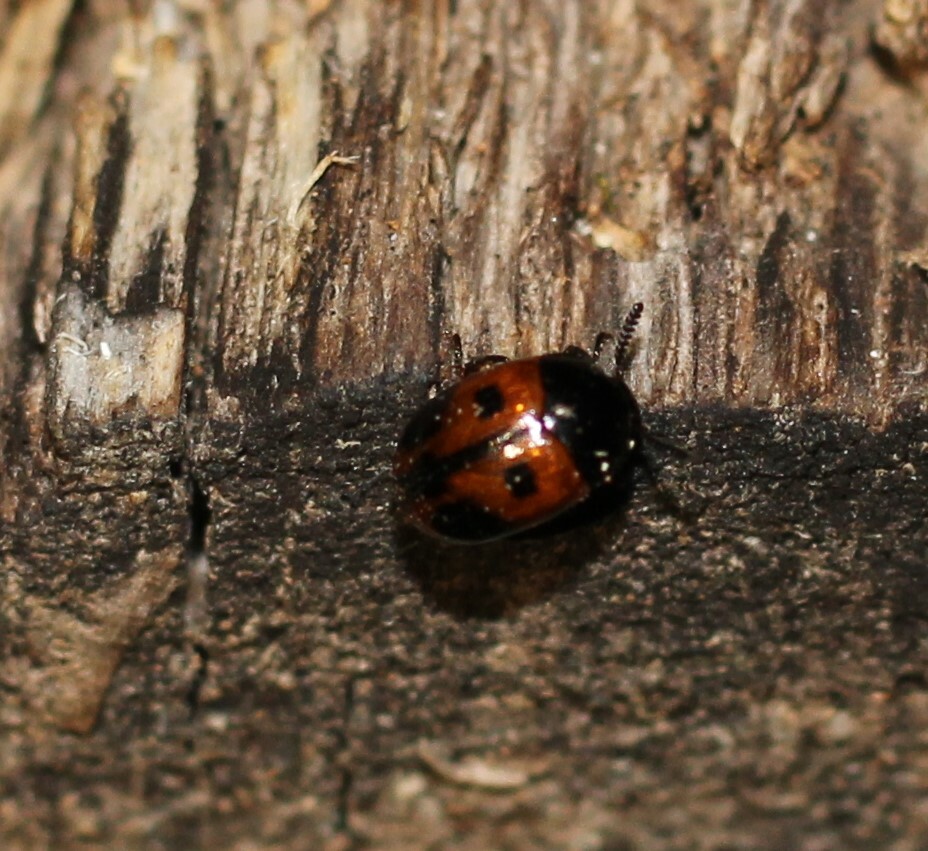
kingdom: Animalia
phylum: Arthropoda
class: Insecta
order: Coleoptera
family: Tenebrionidae
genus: Diaperis
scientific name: Diaperis maculata
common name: Darkling beetle
